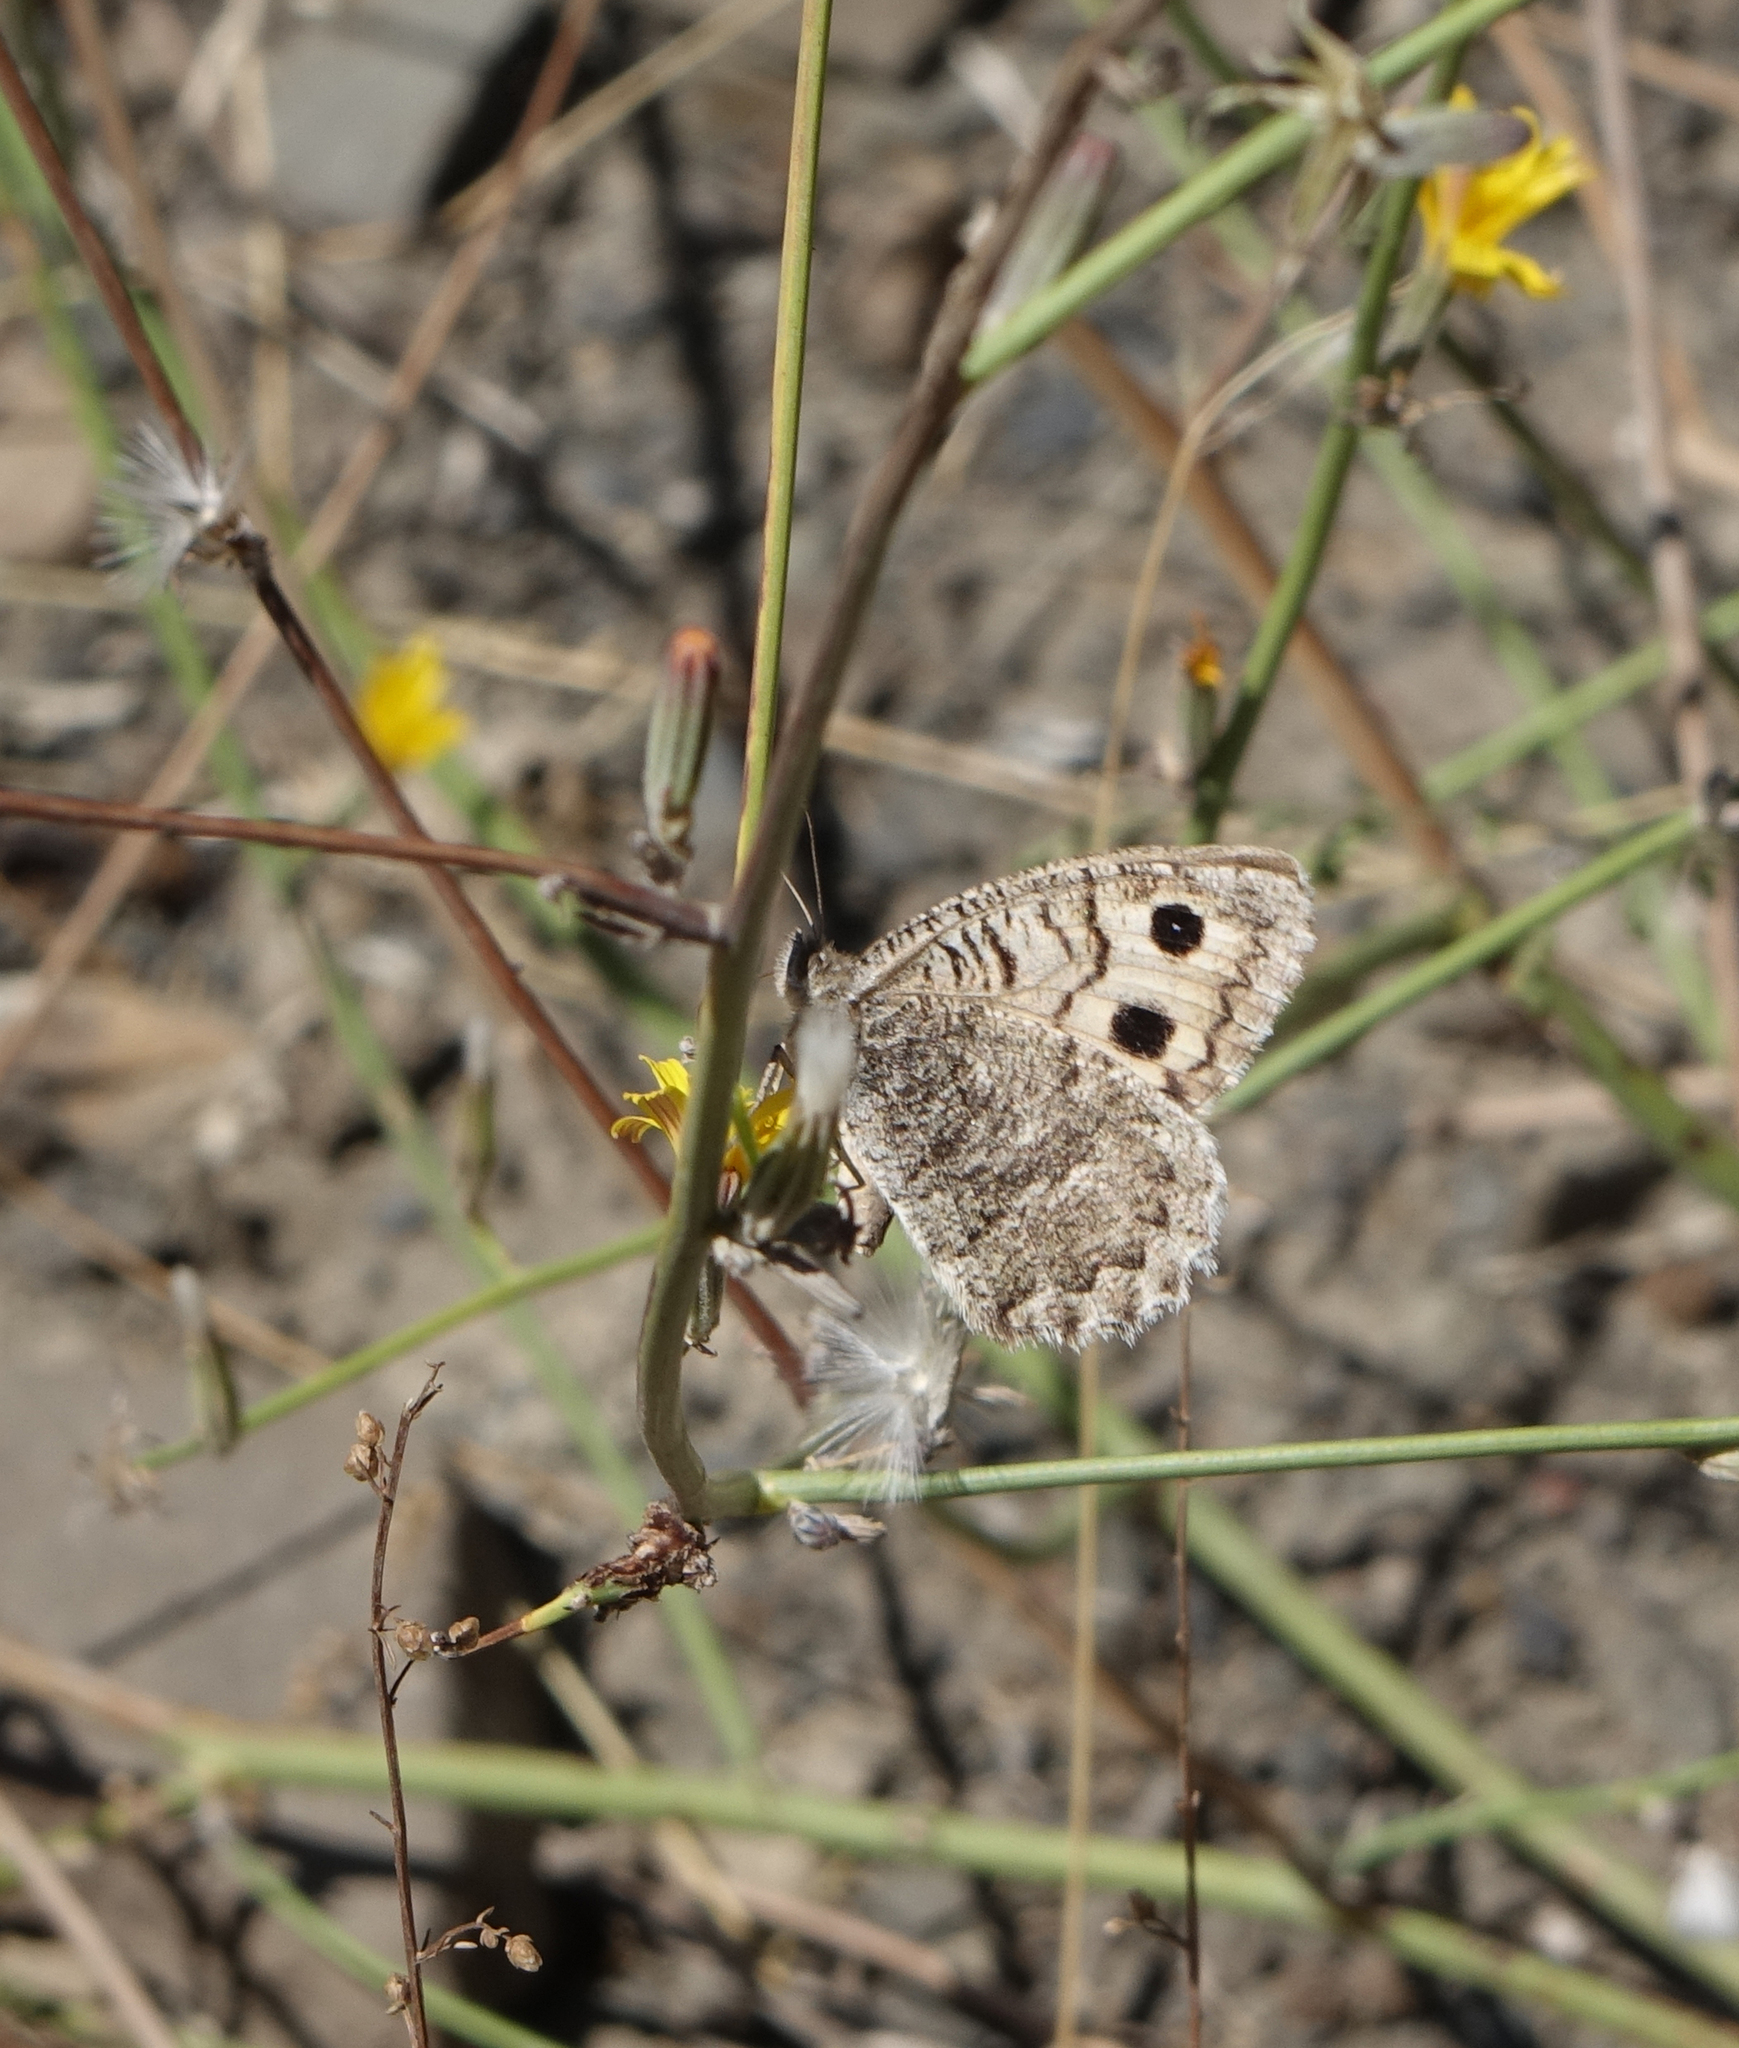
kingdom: Animalia
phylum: Arthropoda
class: Insecta
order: Lepidoptera
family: Nymphalidae
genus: Pseudochazara
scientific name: Pseudochazara daghestana
